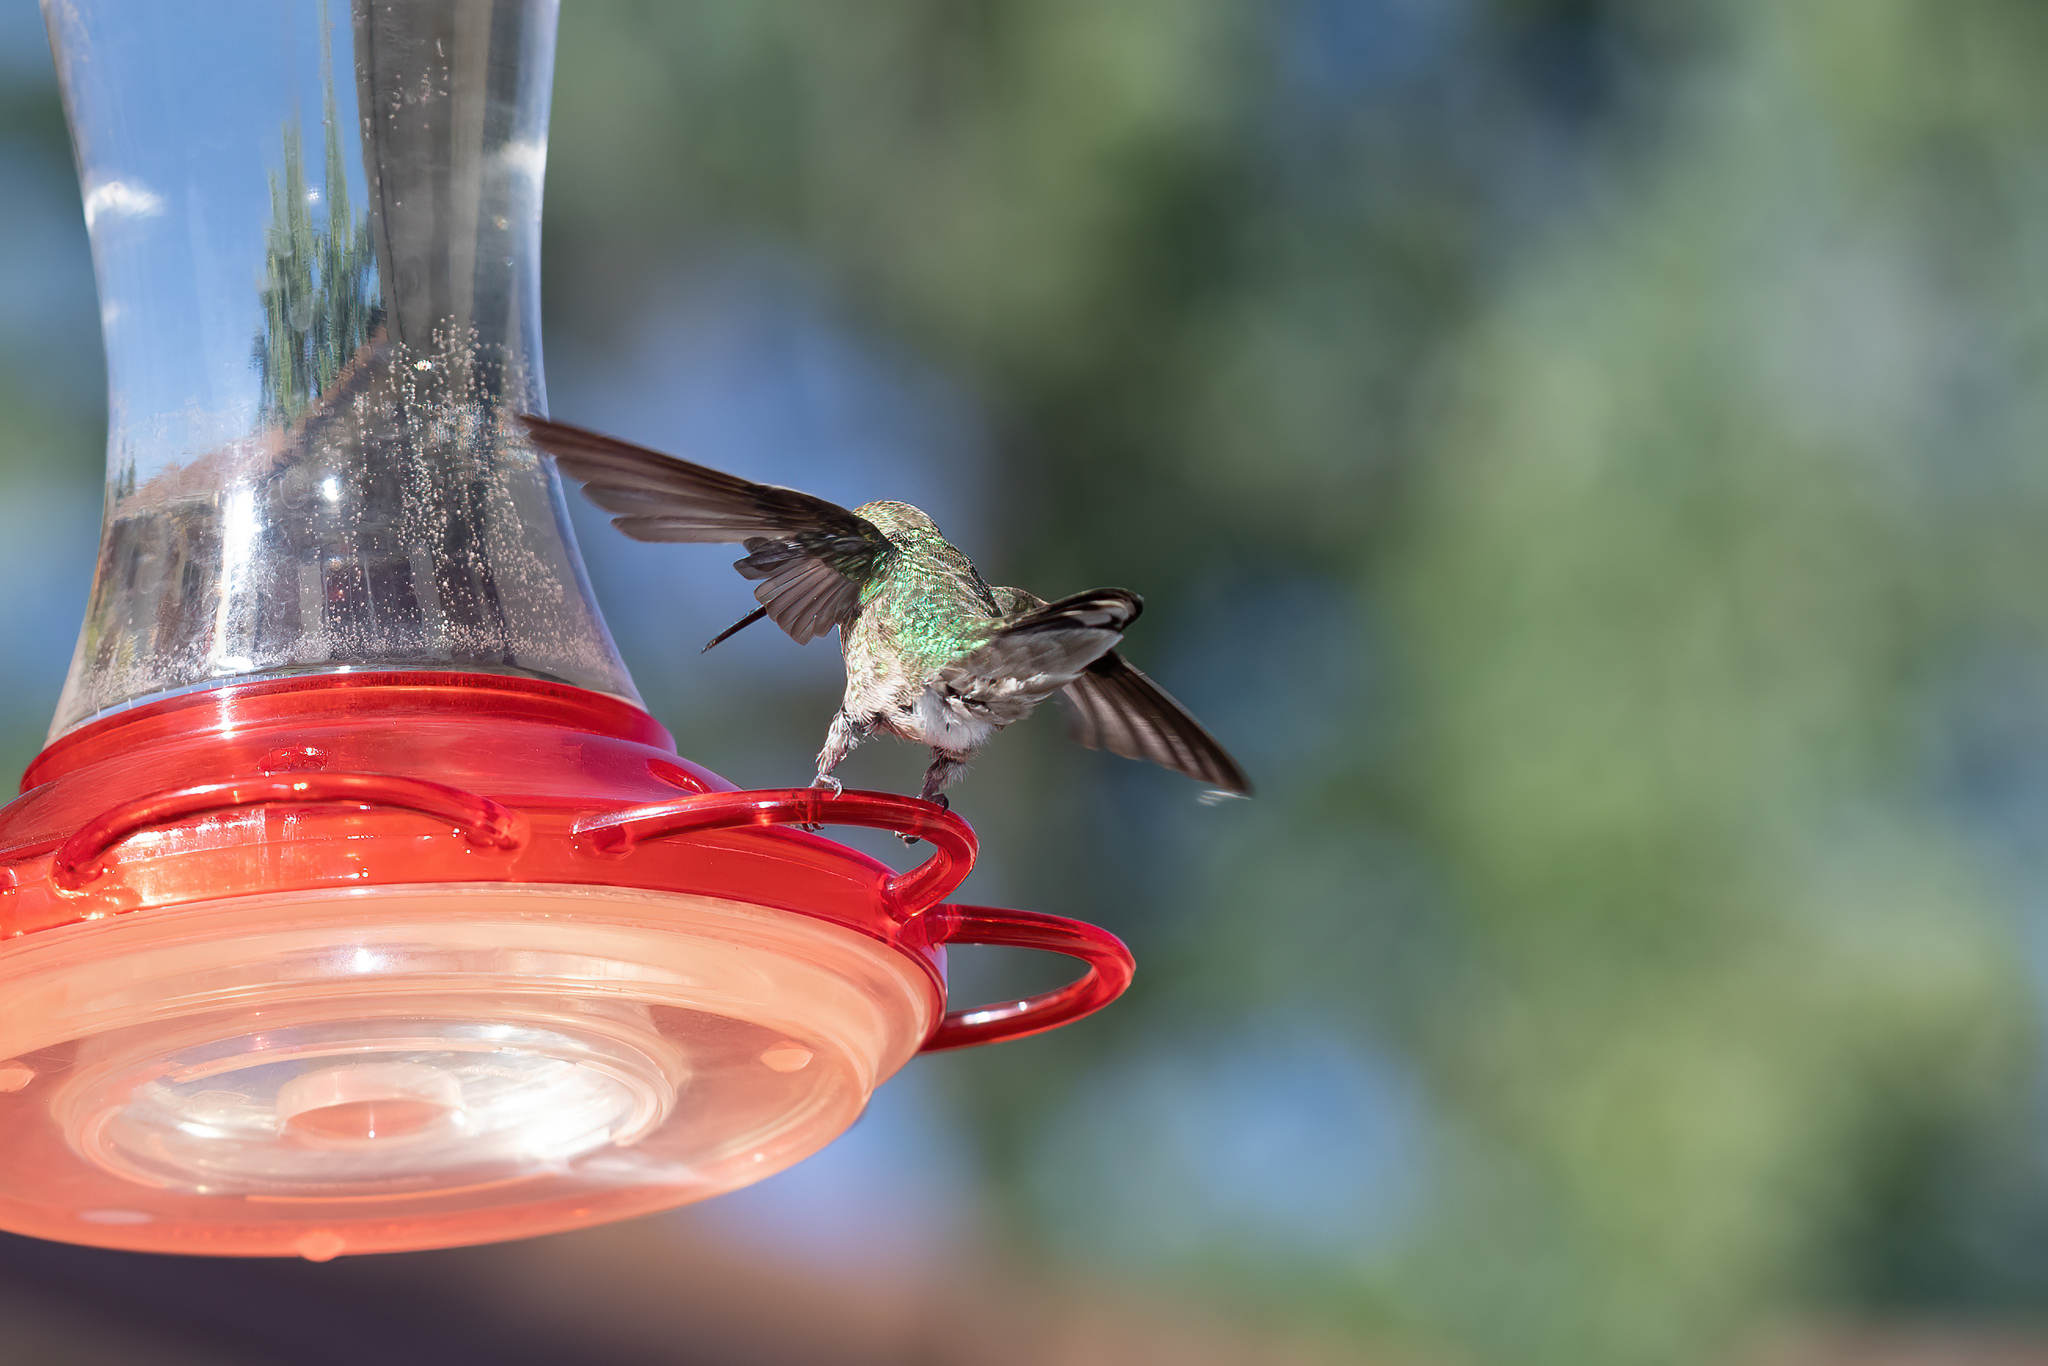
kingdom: Animalia
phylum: Chordata
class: Aves
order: Apodiformes
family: Trochilidae
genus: Calypte
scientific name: Calypte anna
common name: Anna's hummingbird
